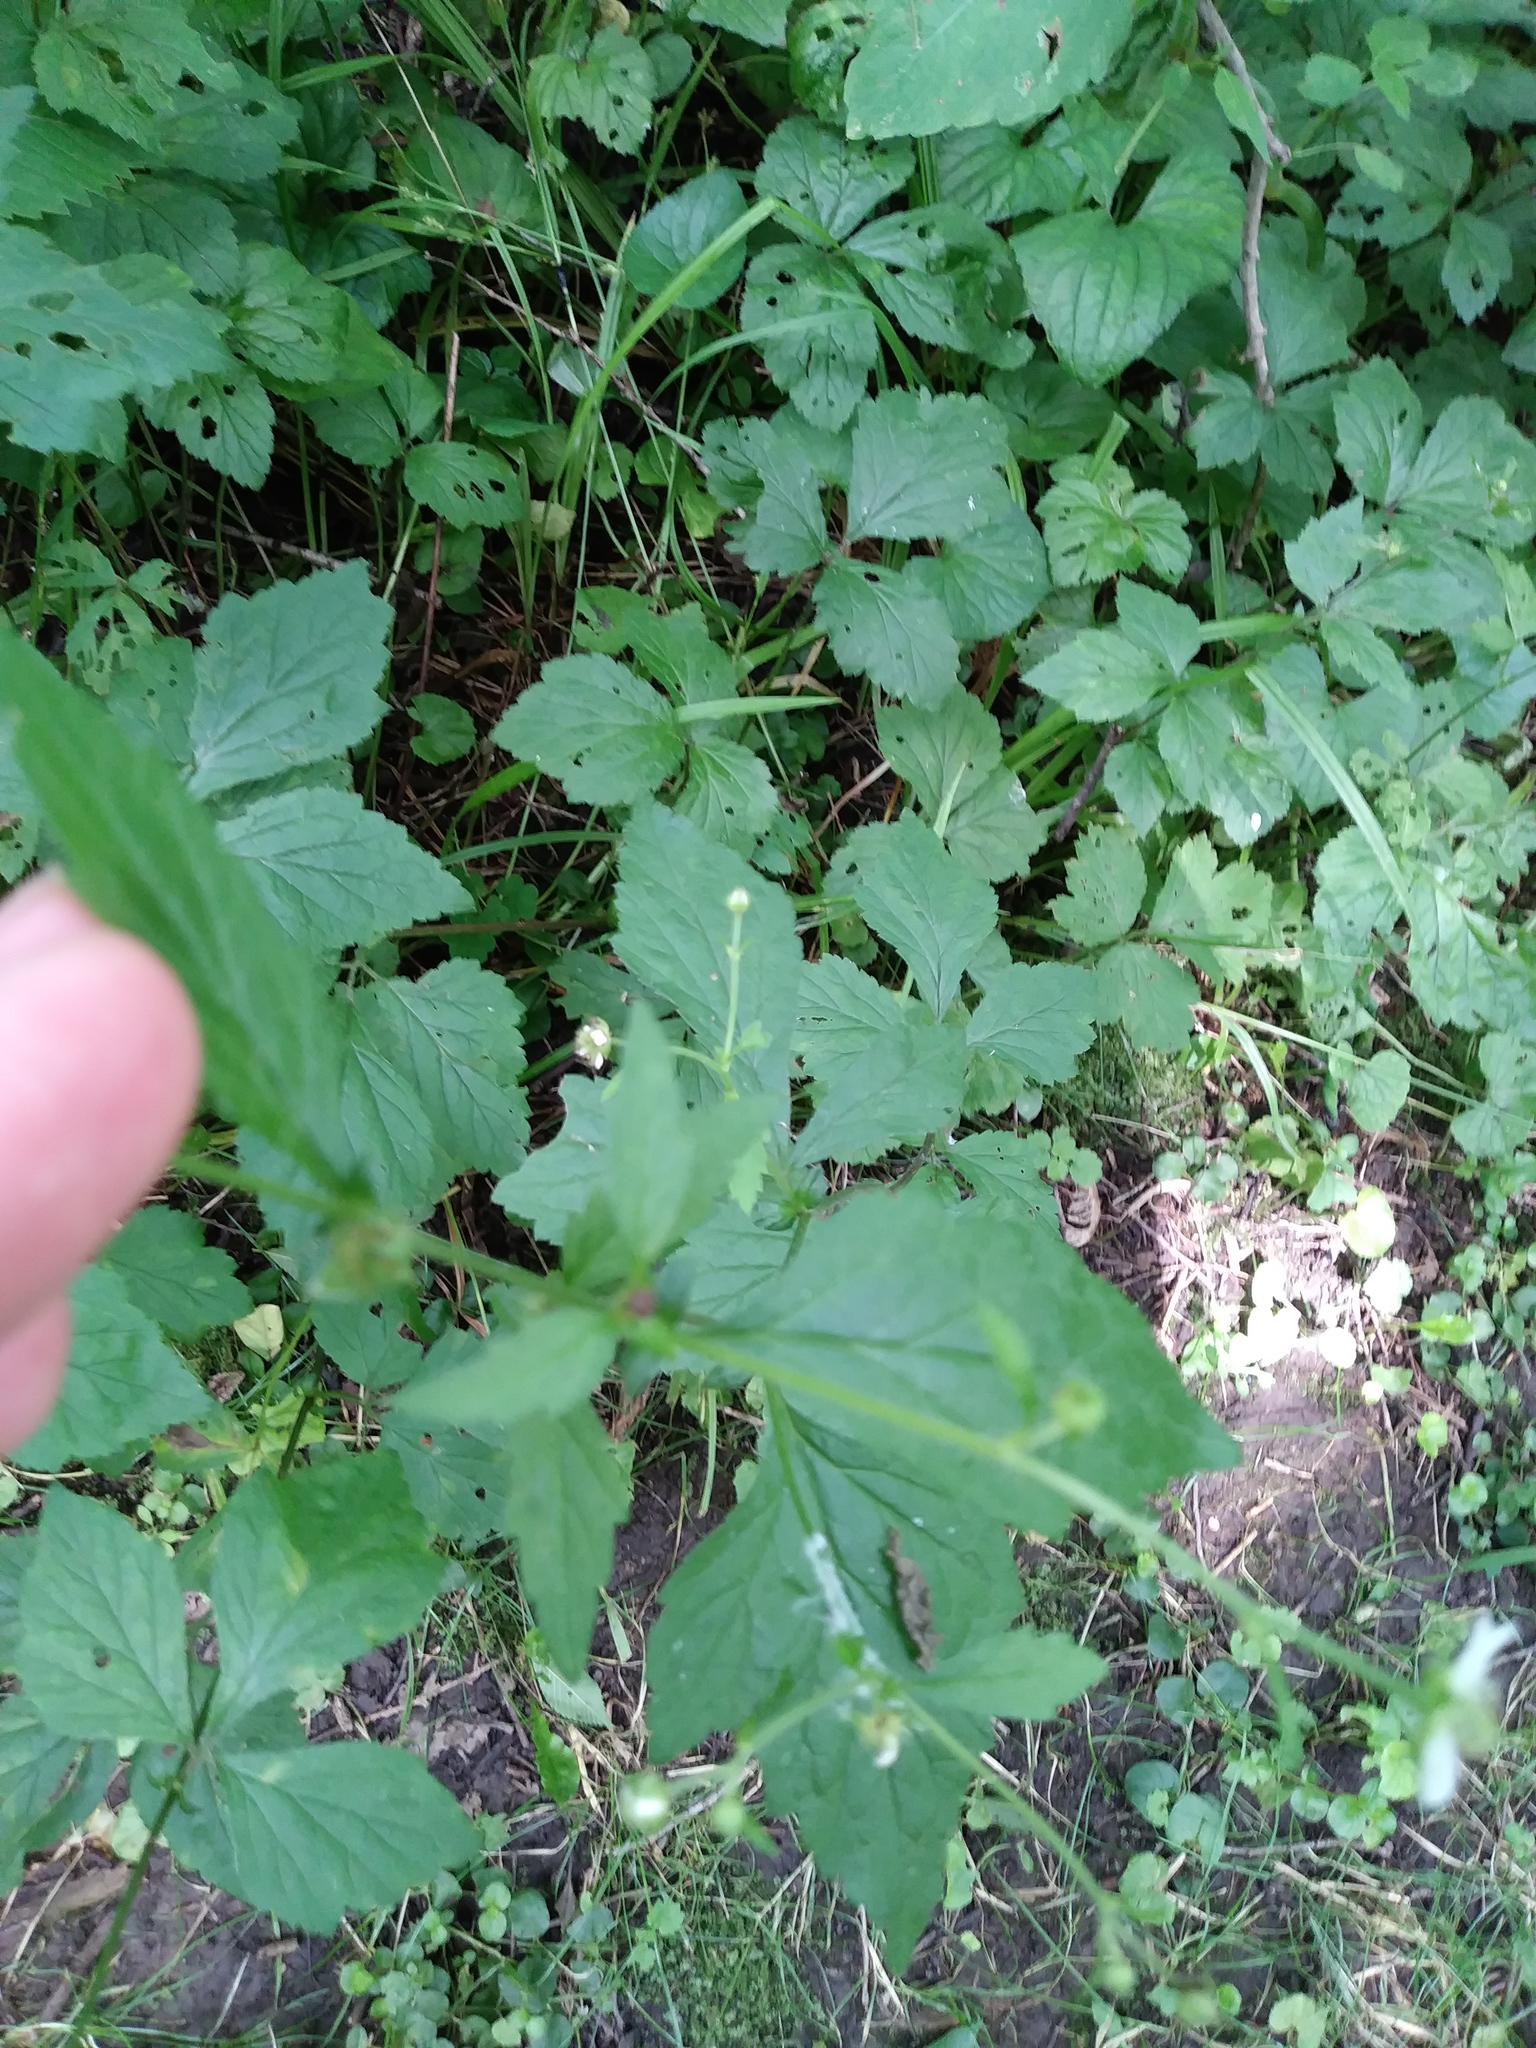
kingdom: Plantae
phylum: Tracheophyta
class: Magnoliopsida
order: Rosales
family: Rosaceae
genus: Geum
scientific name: Geum canadense
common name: White avens
